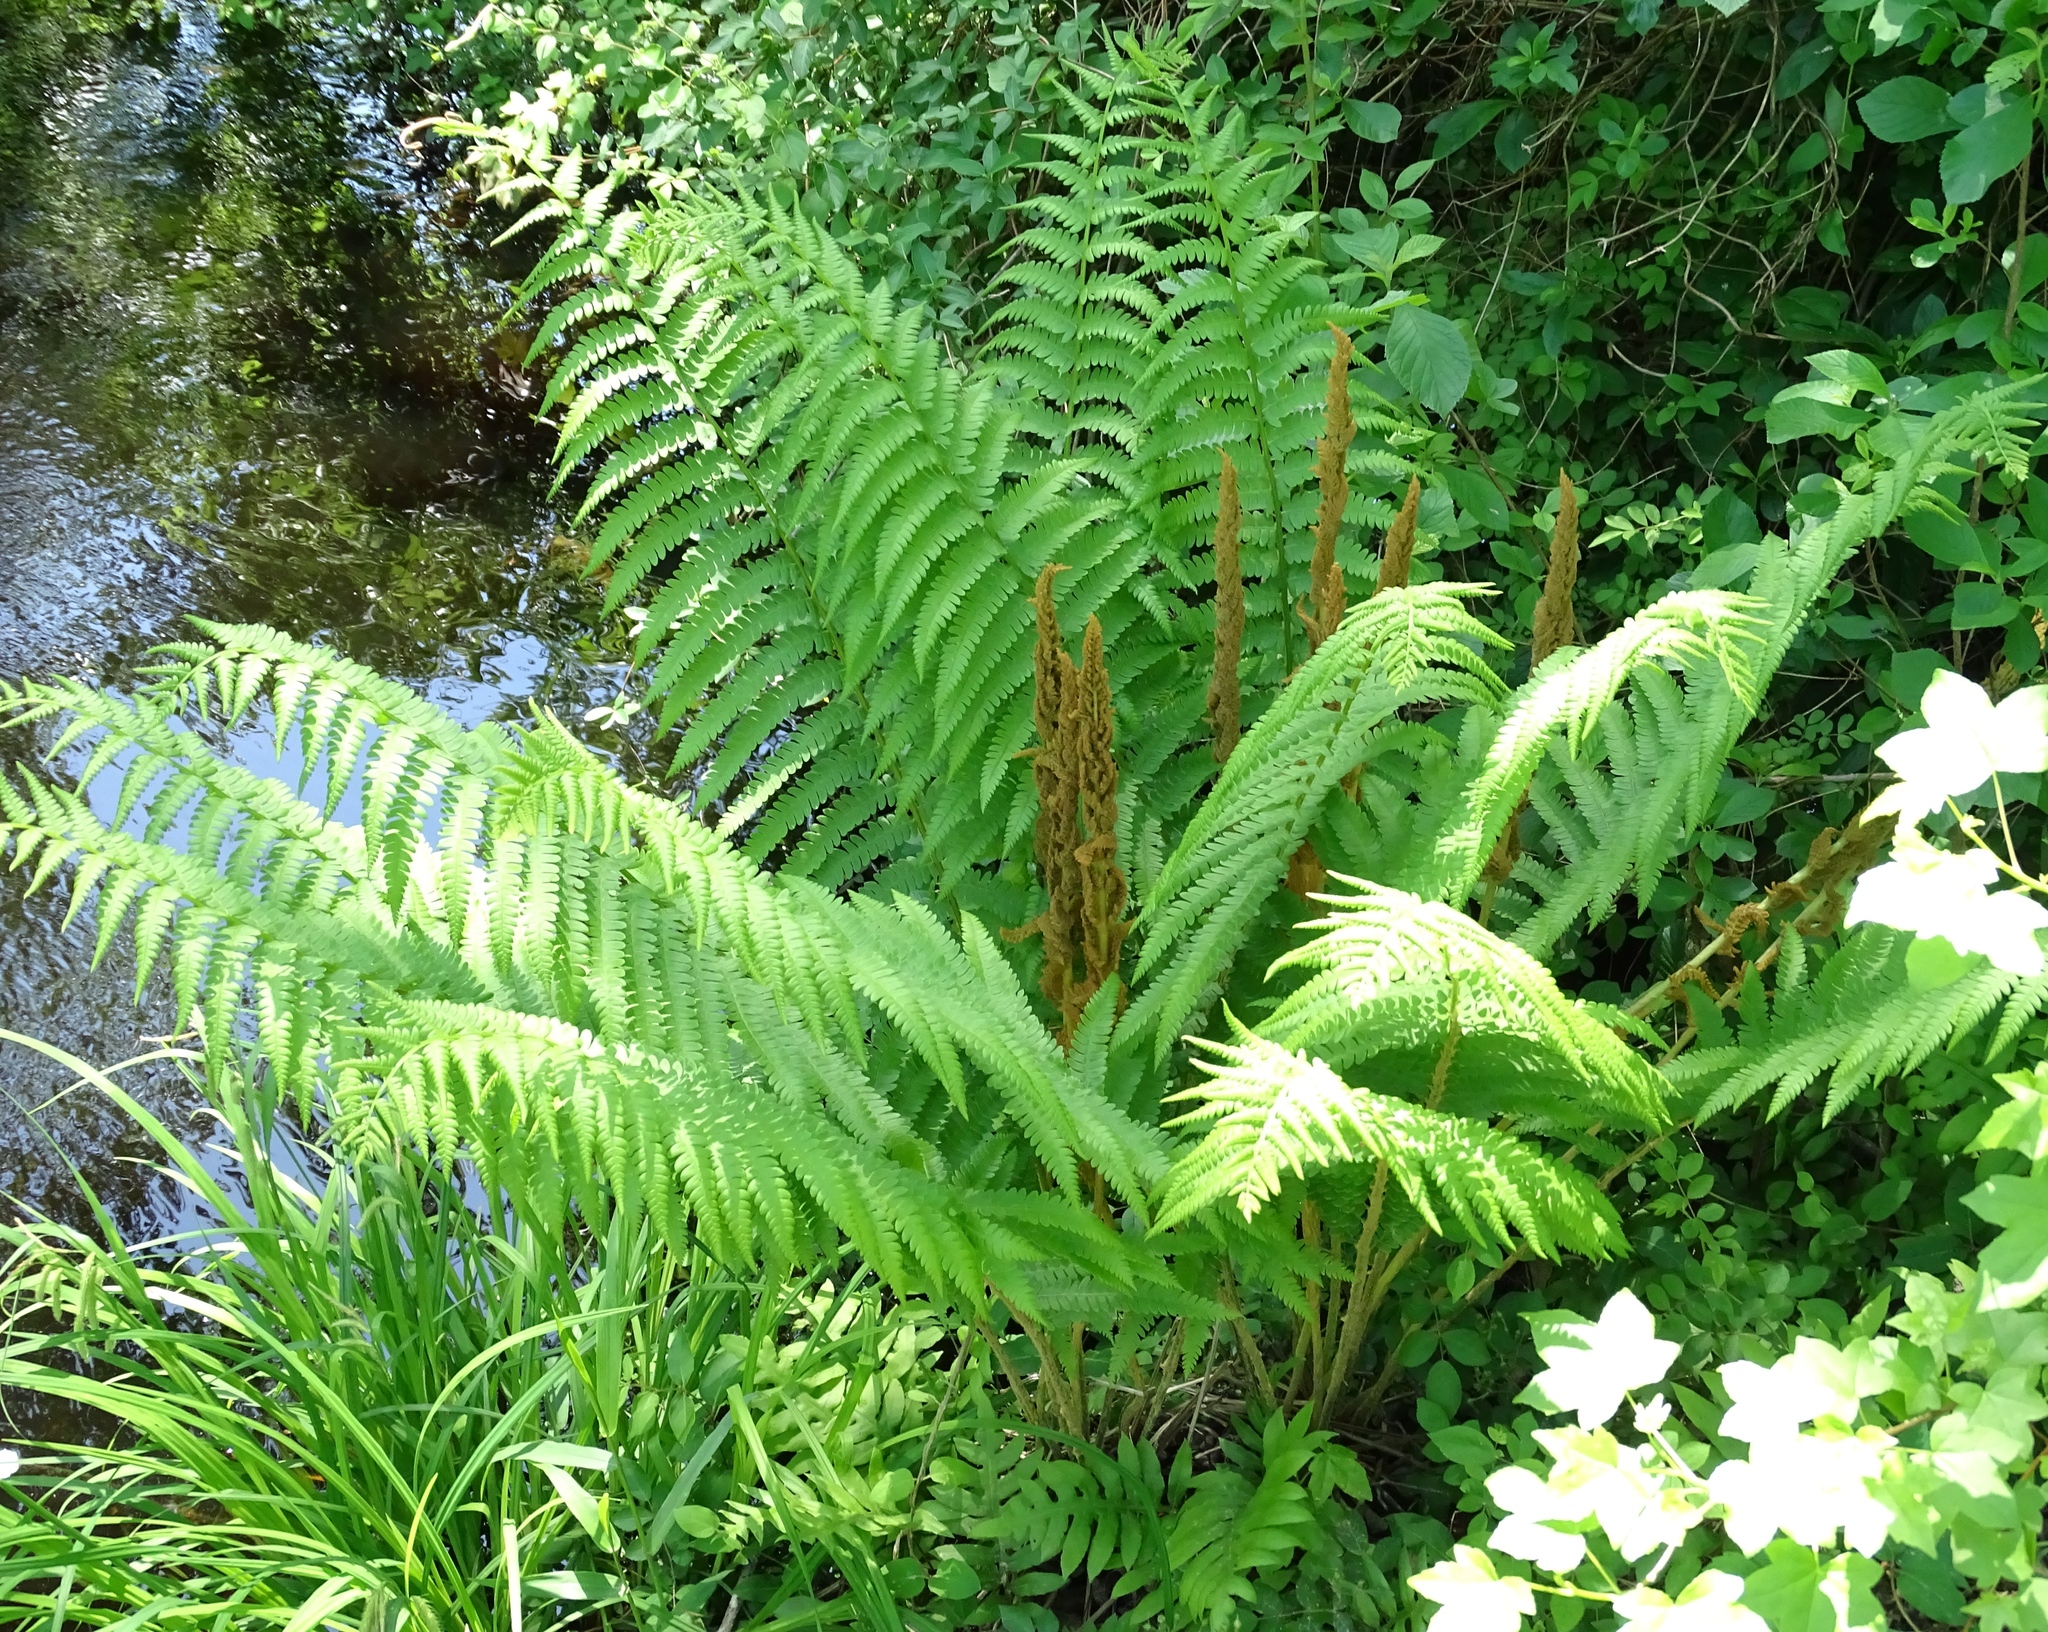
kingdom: Plantae
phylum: Tracheophyta
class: Polypodiopsida
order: Osmundales
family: Osmundaceae
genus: Osmundastrum
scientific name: Osmundastrum cinnamomeum
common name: Cinnamon fern
